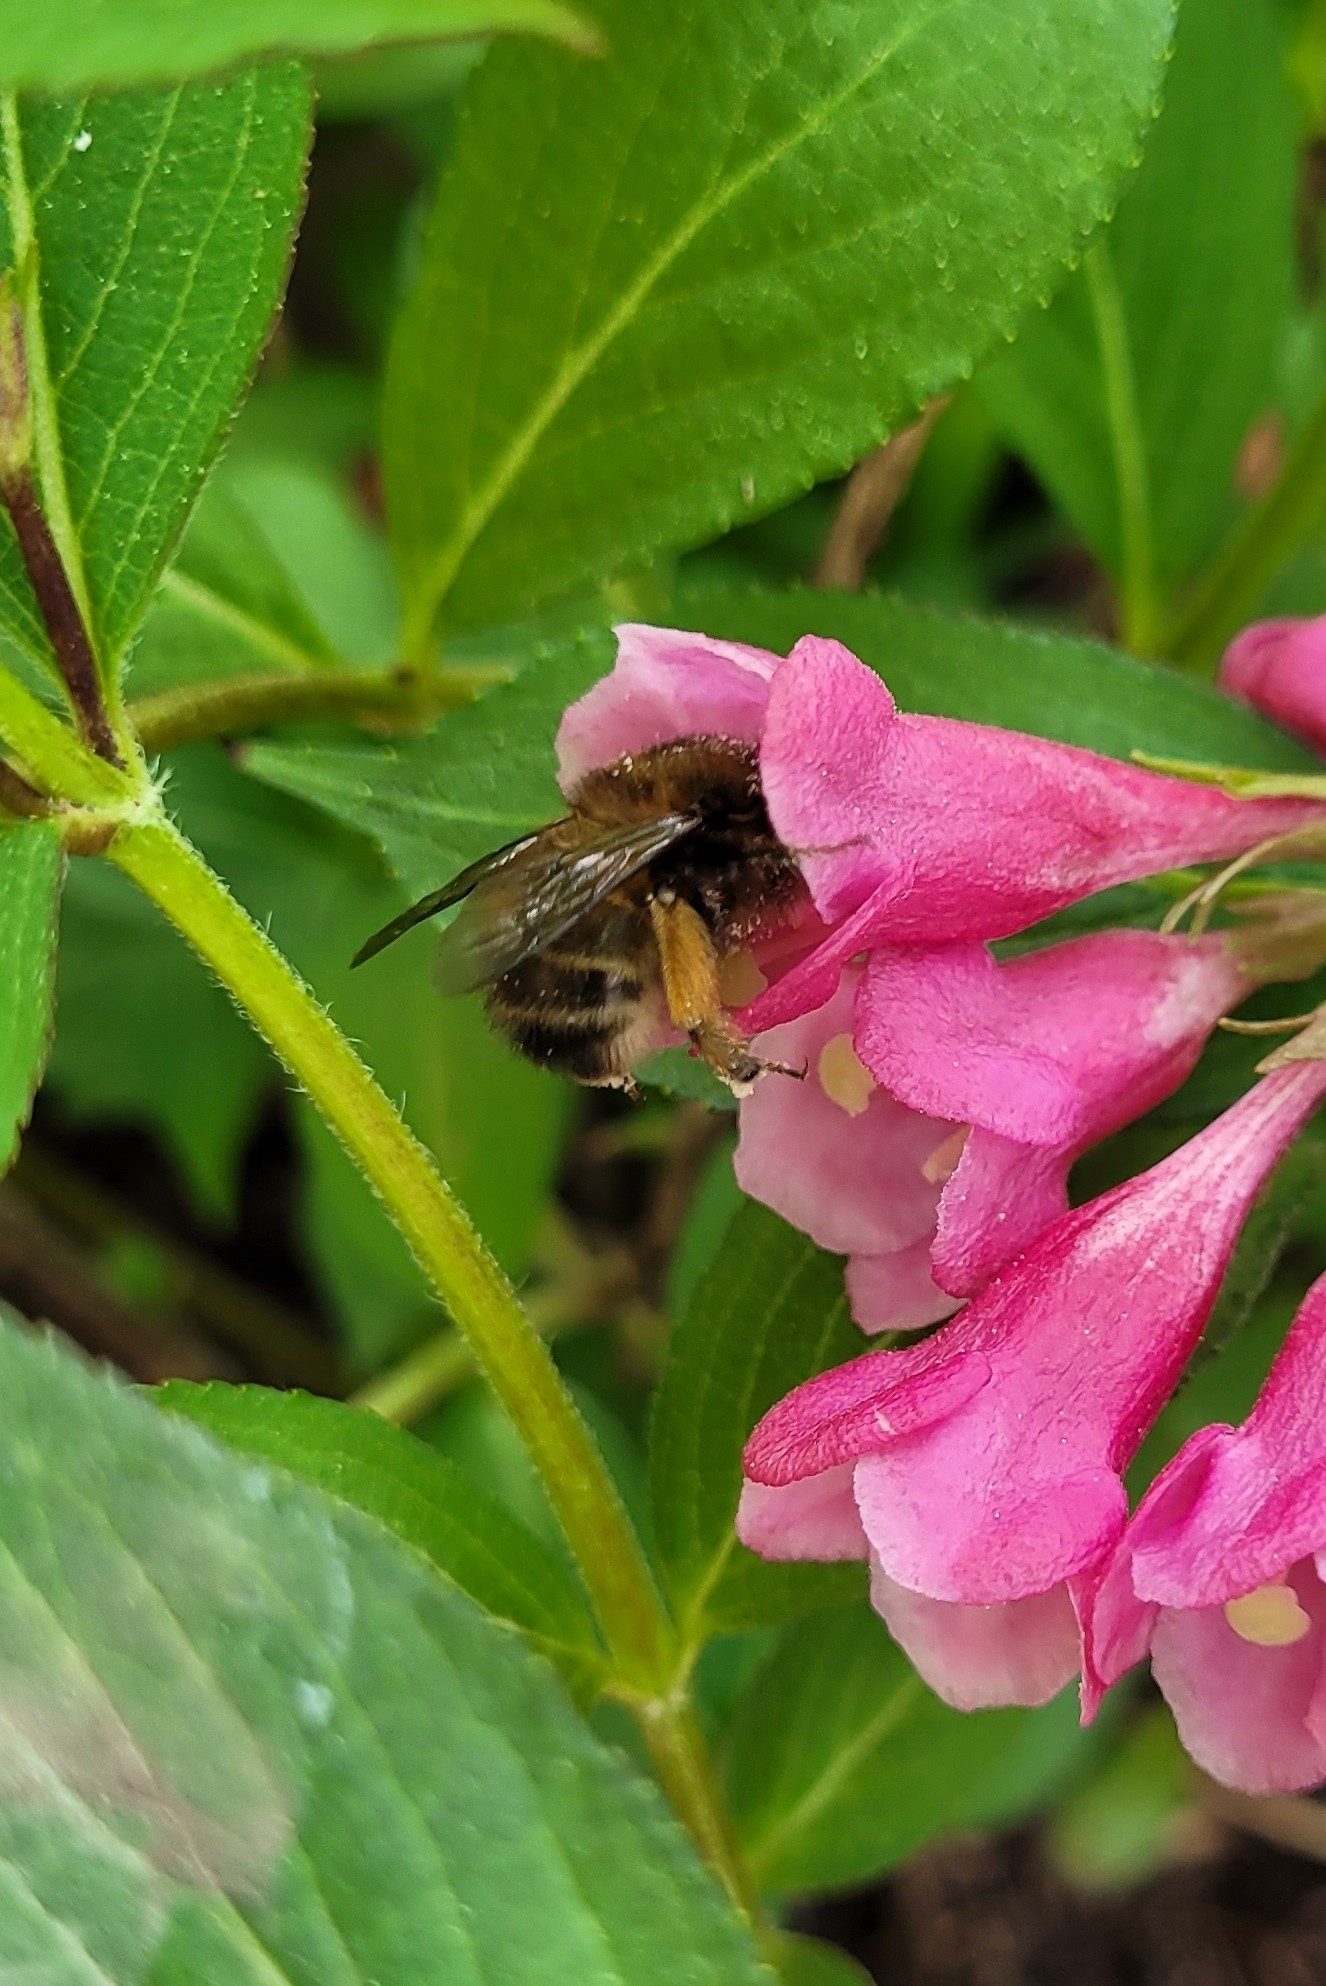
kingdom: Animalia
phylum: Arthropoda
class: Insecta
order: Hymenoptera
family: Apidae
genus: Anthophora
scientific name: Anthophora plumipes
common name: Hairy-footed flower bee
